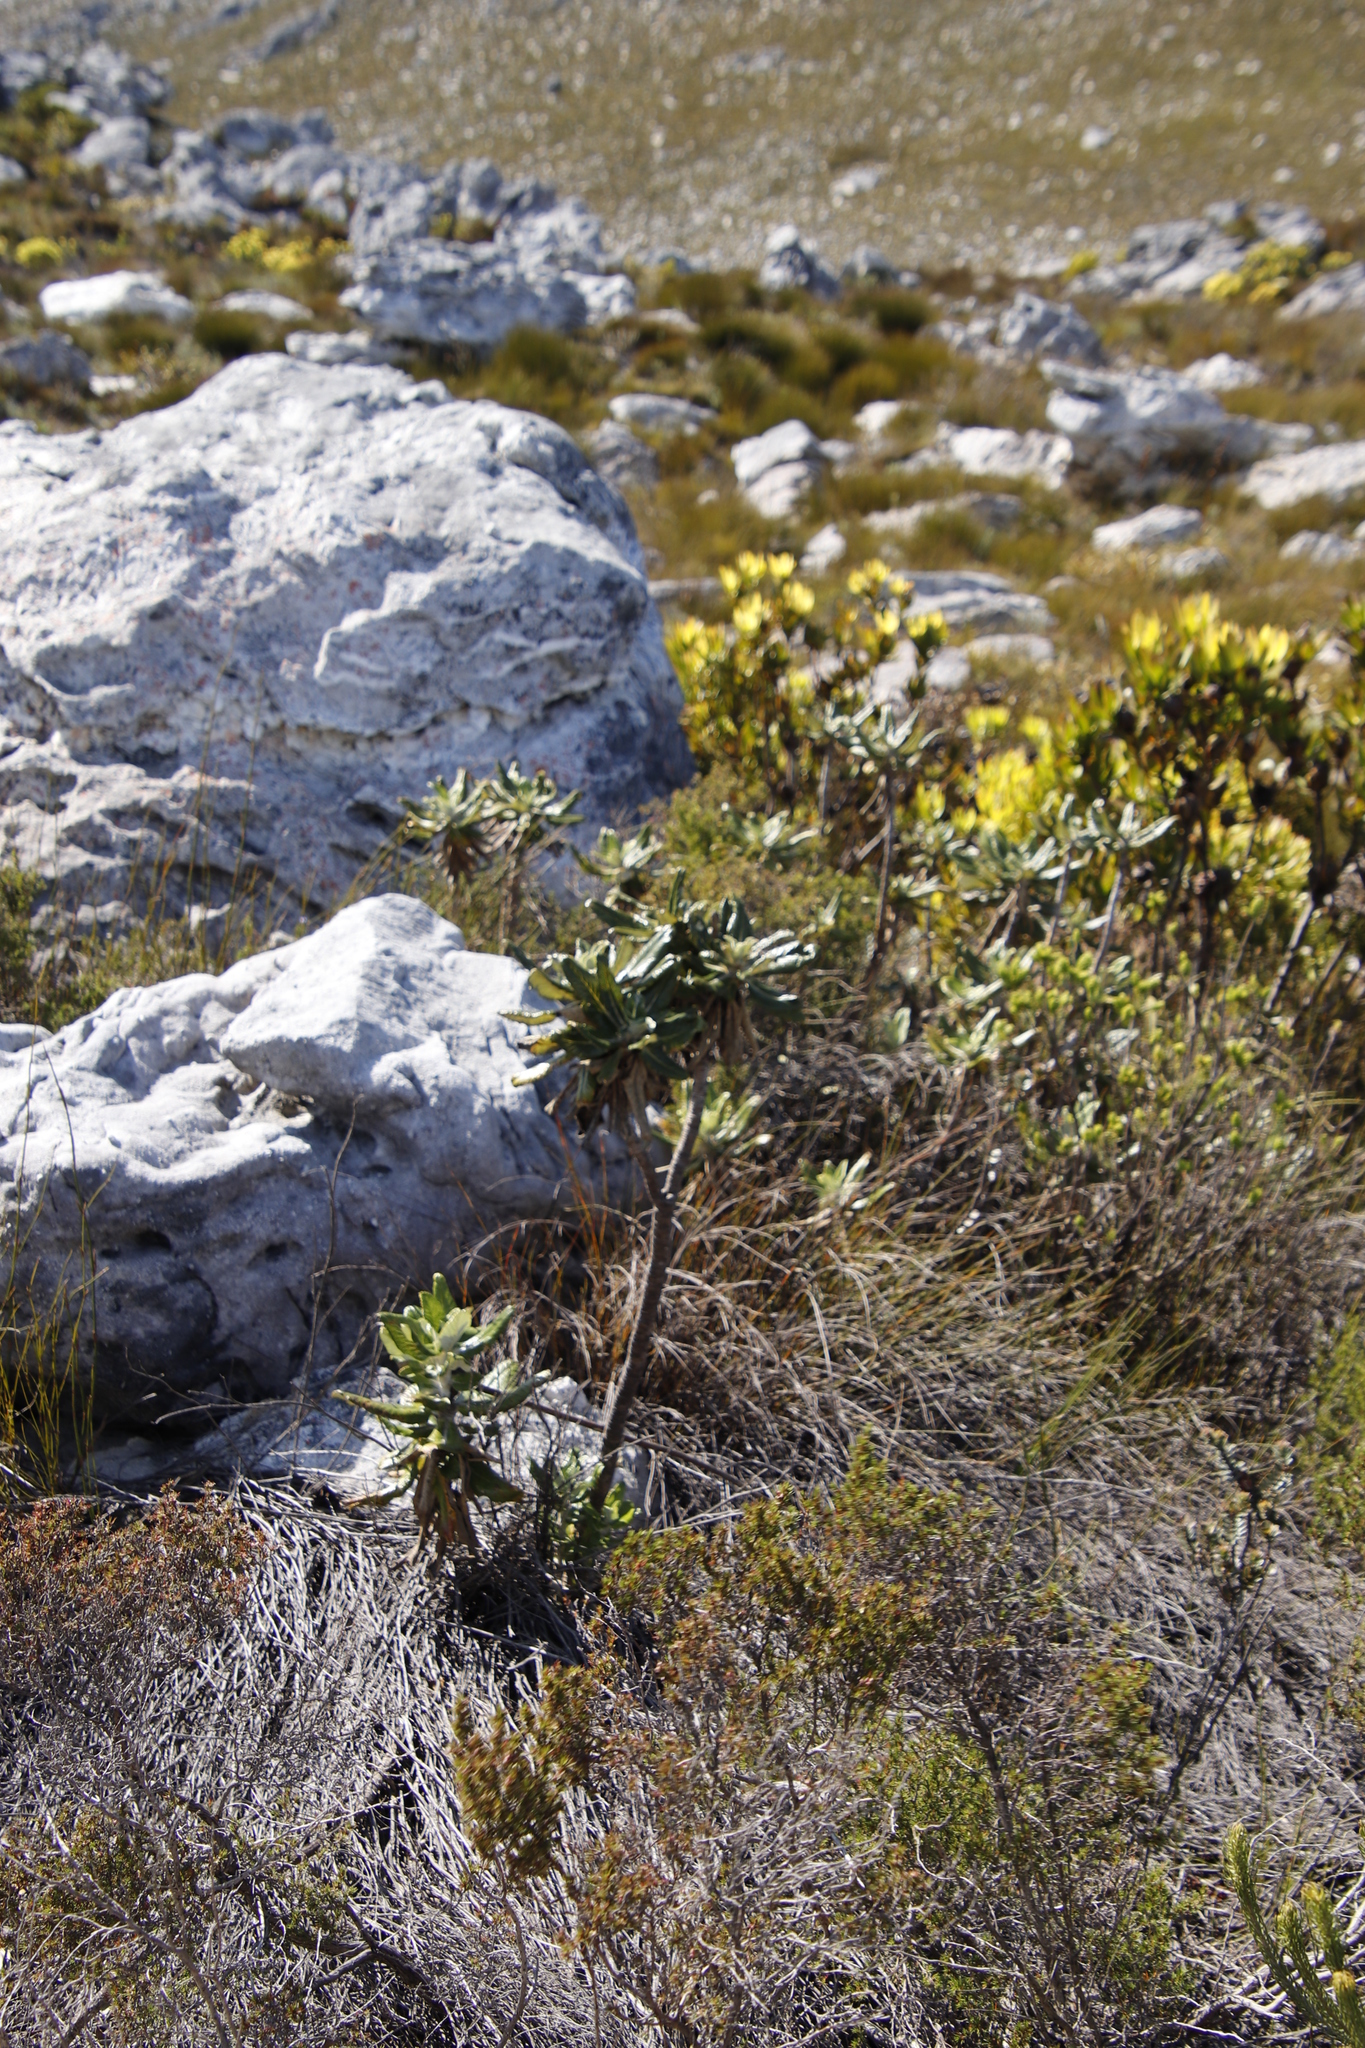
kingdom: Plantae
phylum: Tracheophyta
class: Magnoliopsida
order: Apiales
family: Apiaceae
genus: Hermas
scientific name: Hermas villosa
